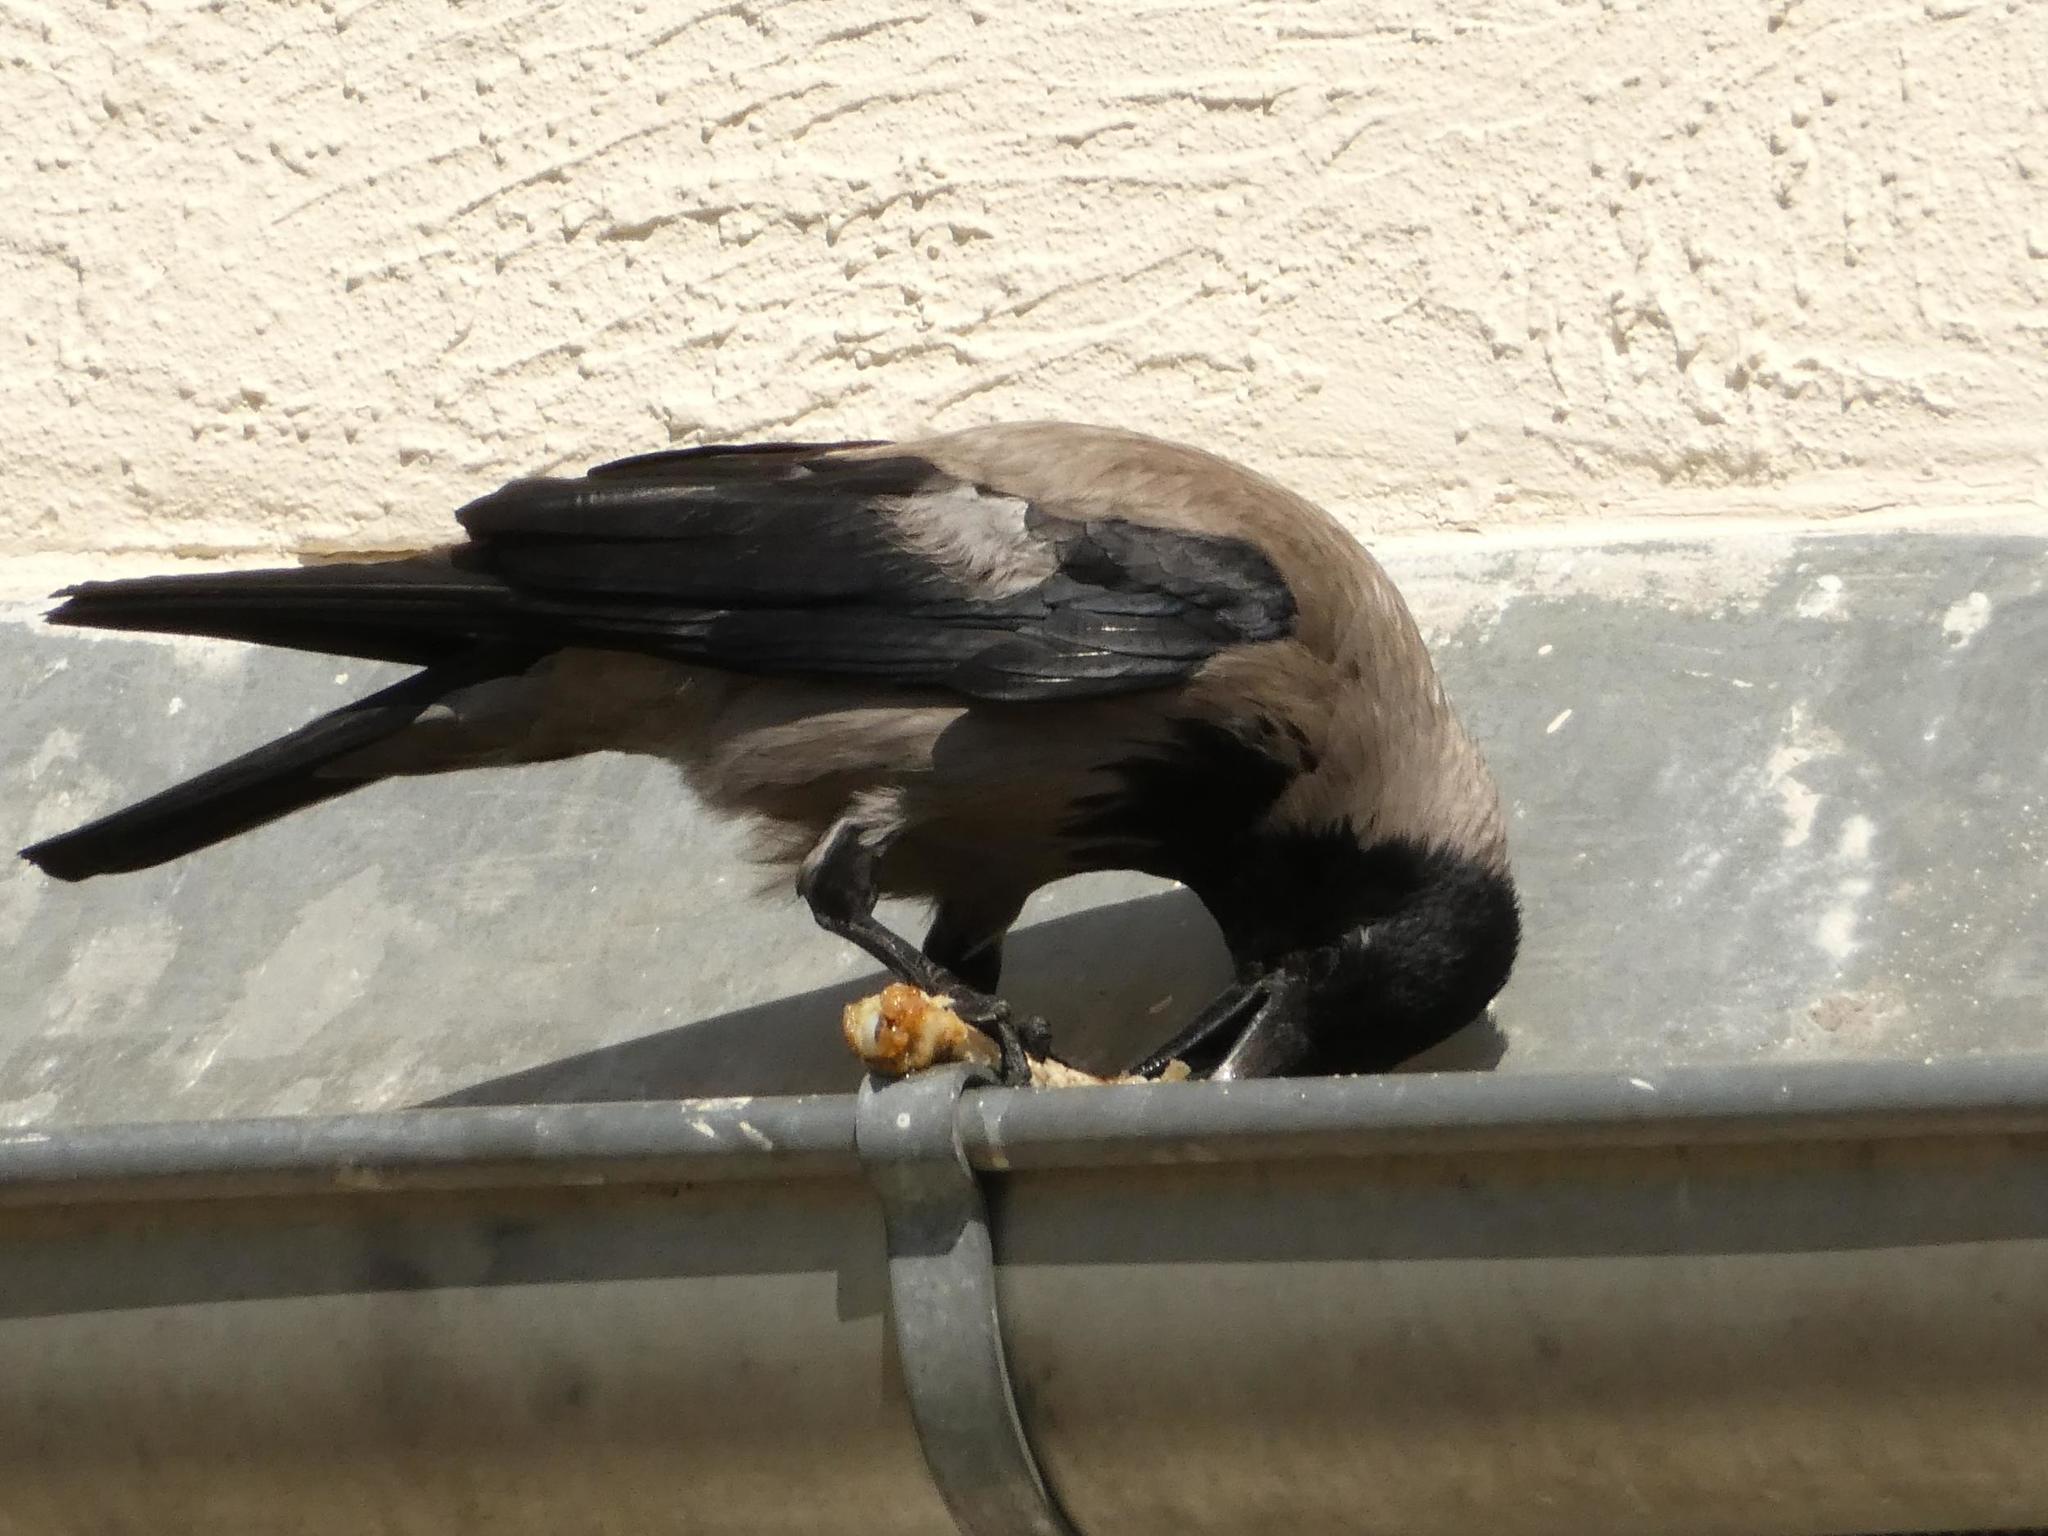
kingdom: Animalia
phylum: Chordata
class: Aves
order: Passeriformes
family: Corvidae
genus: Corvus
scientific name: Corvus cornix
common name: Hooded crow
